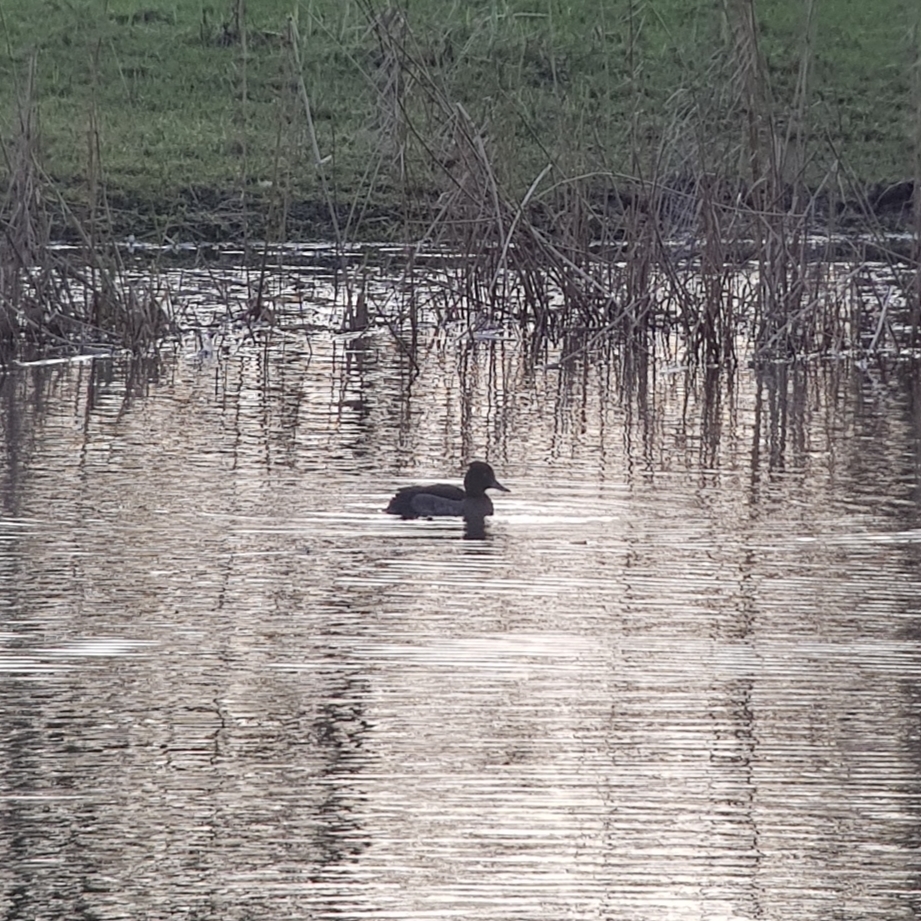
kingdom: Animalia
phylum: Chordata
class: Aves
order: Anseriformes
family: Anatidae
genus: Aythya
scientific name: Aythya fuligula
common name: Tufted duck
